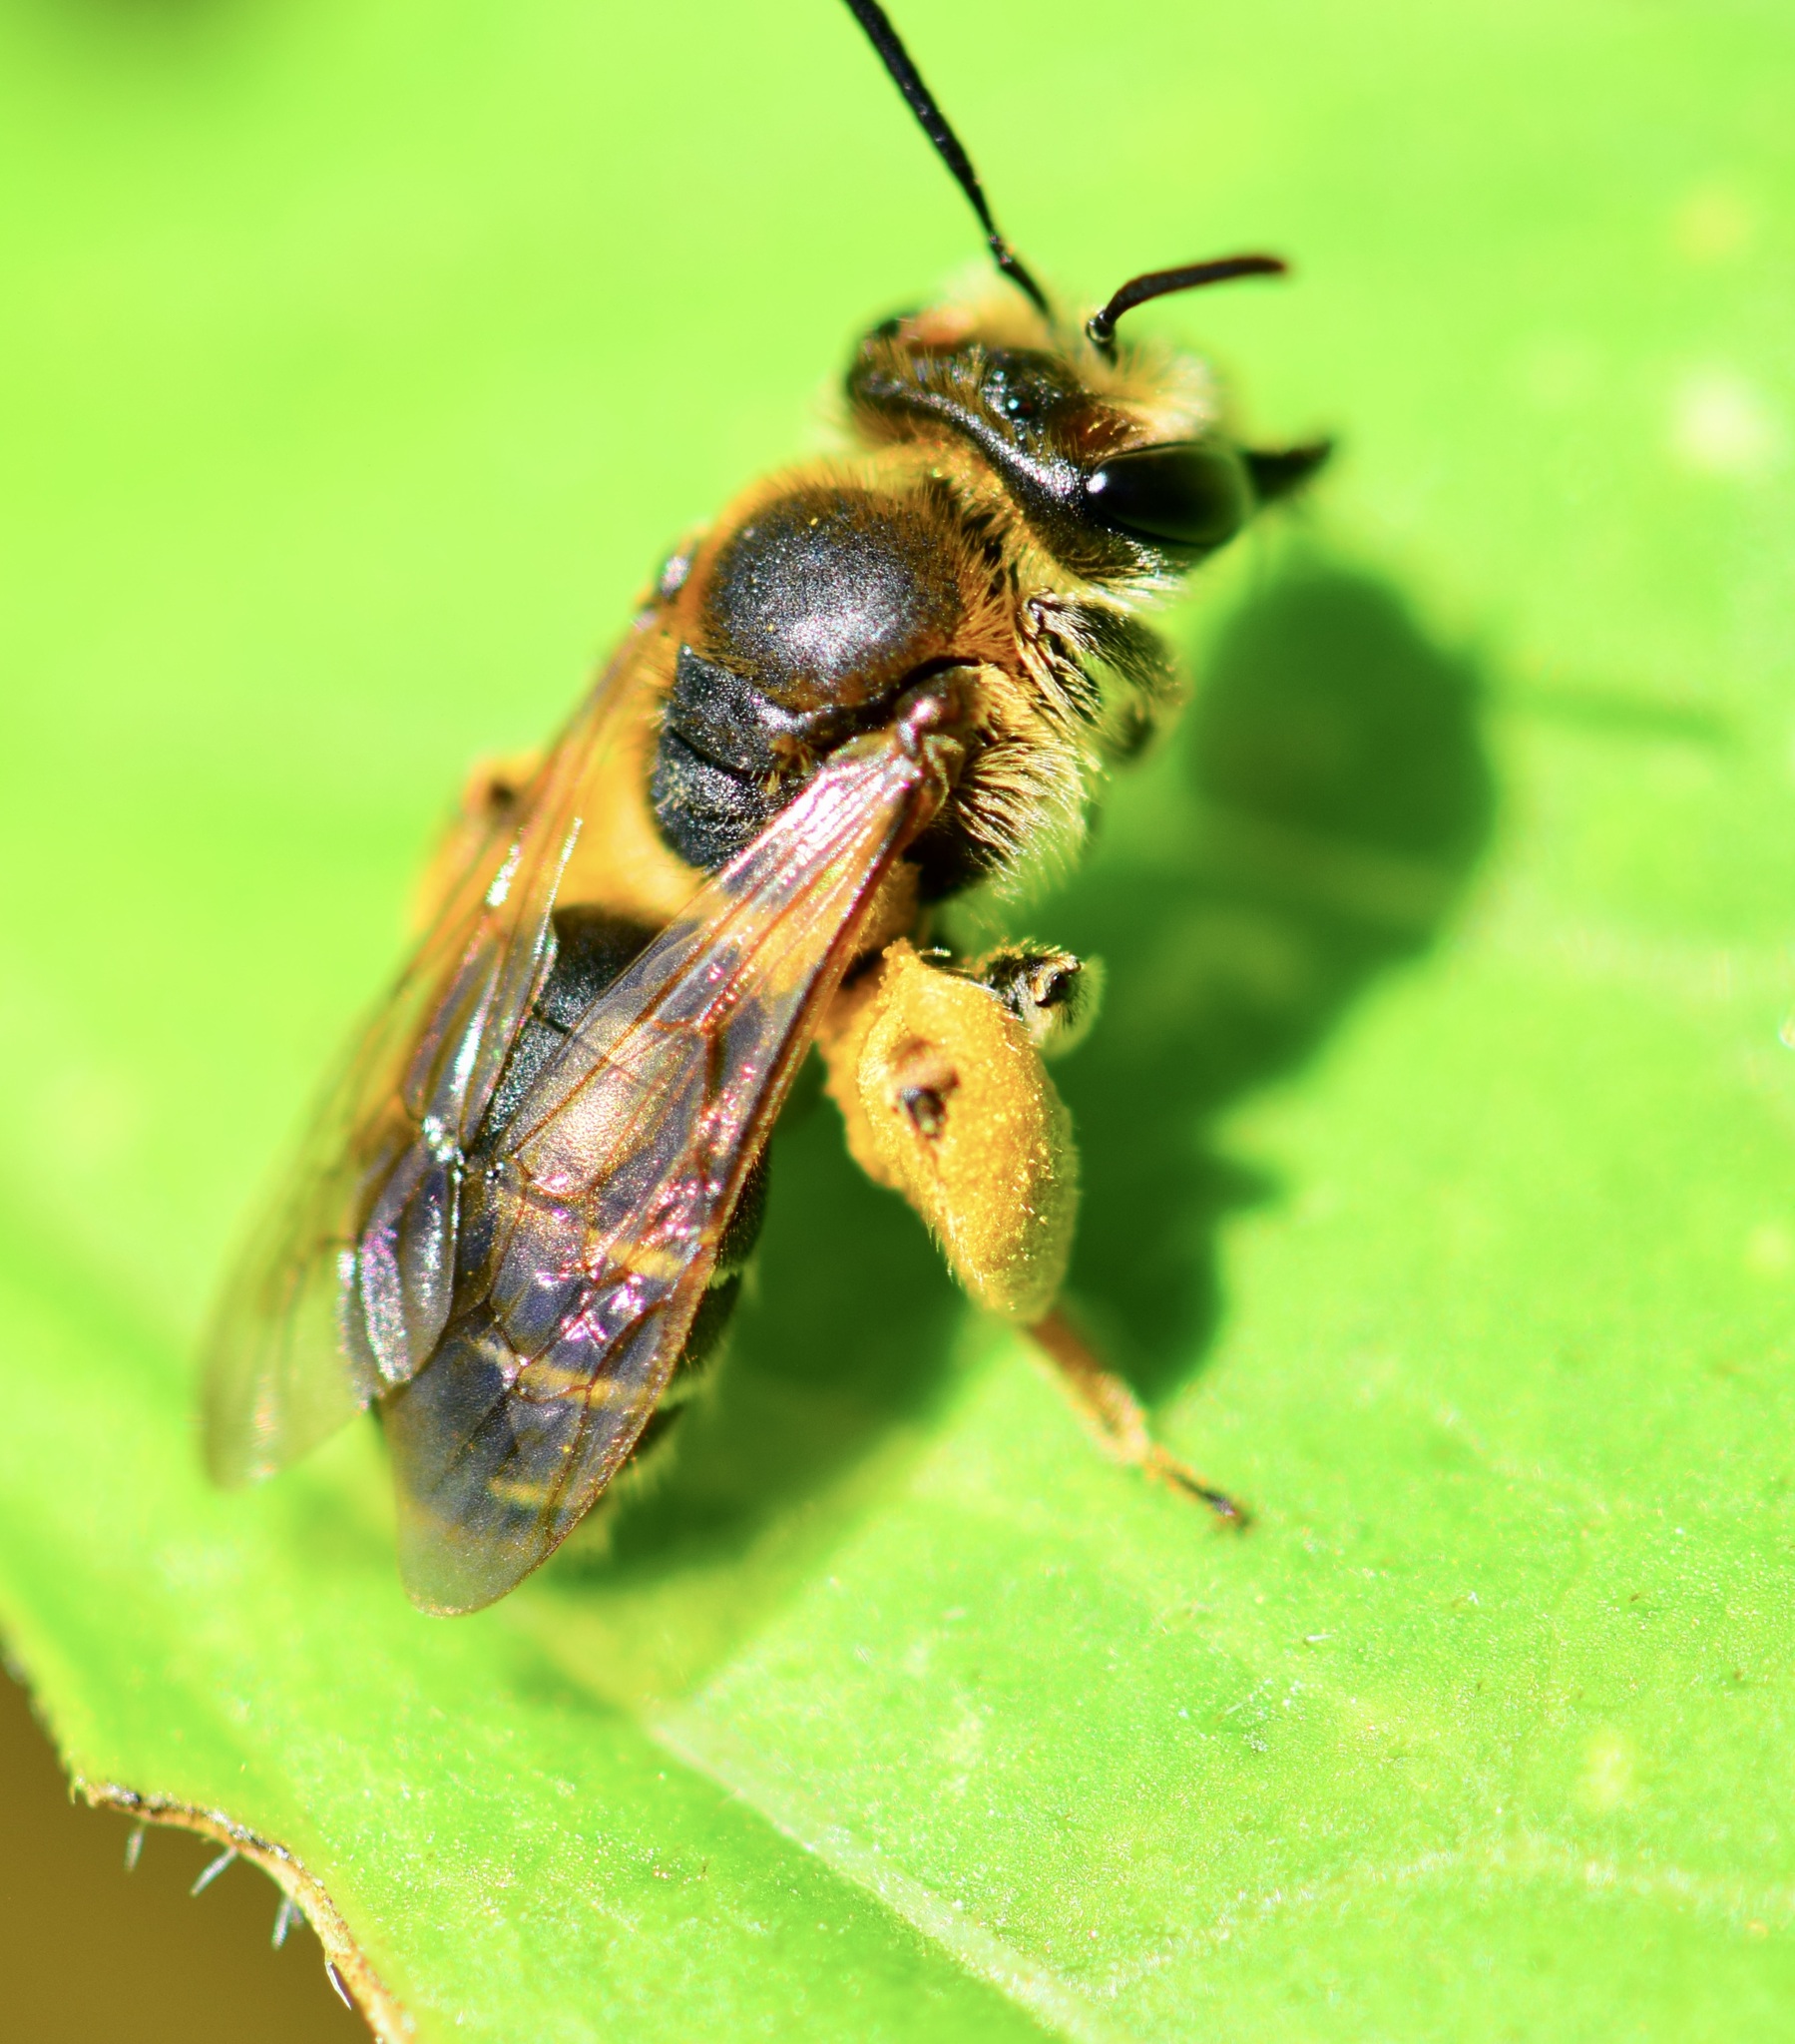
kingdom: Animalia
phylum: Arthropoda
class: Insecta
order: Hymenoptera
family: Andrenidae
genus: Andrena
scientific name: Andrena wilkella
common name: Wilke's mining bee
